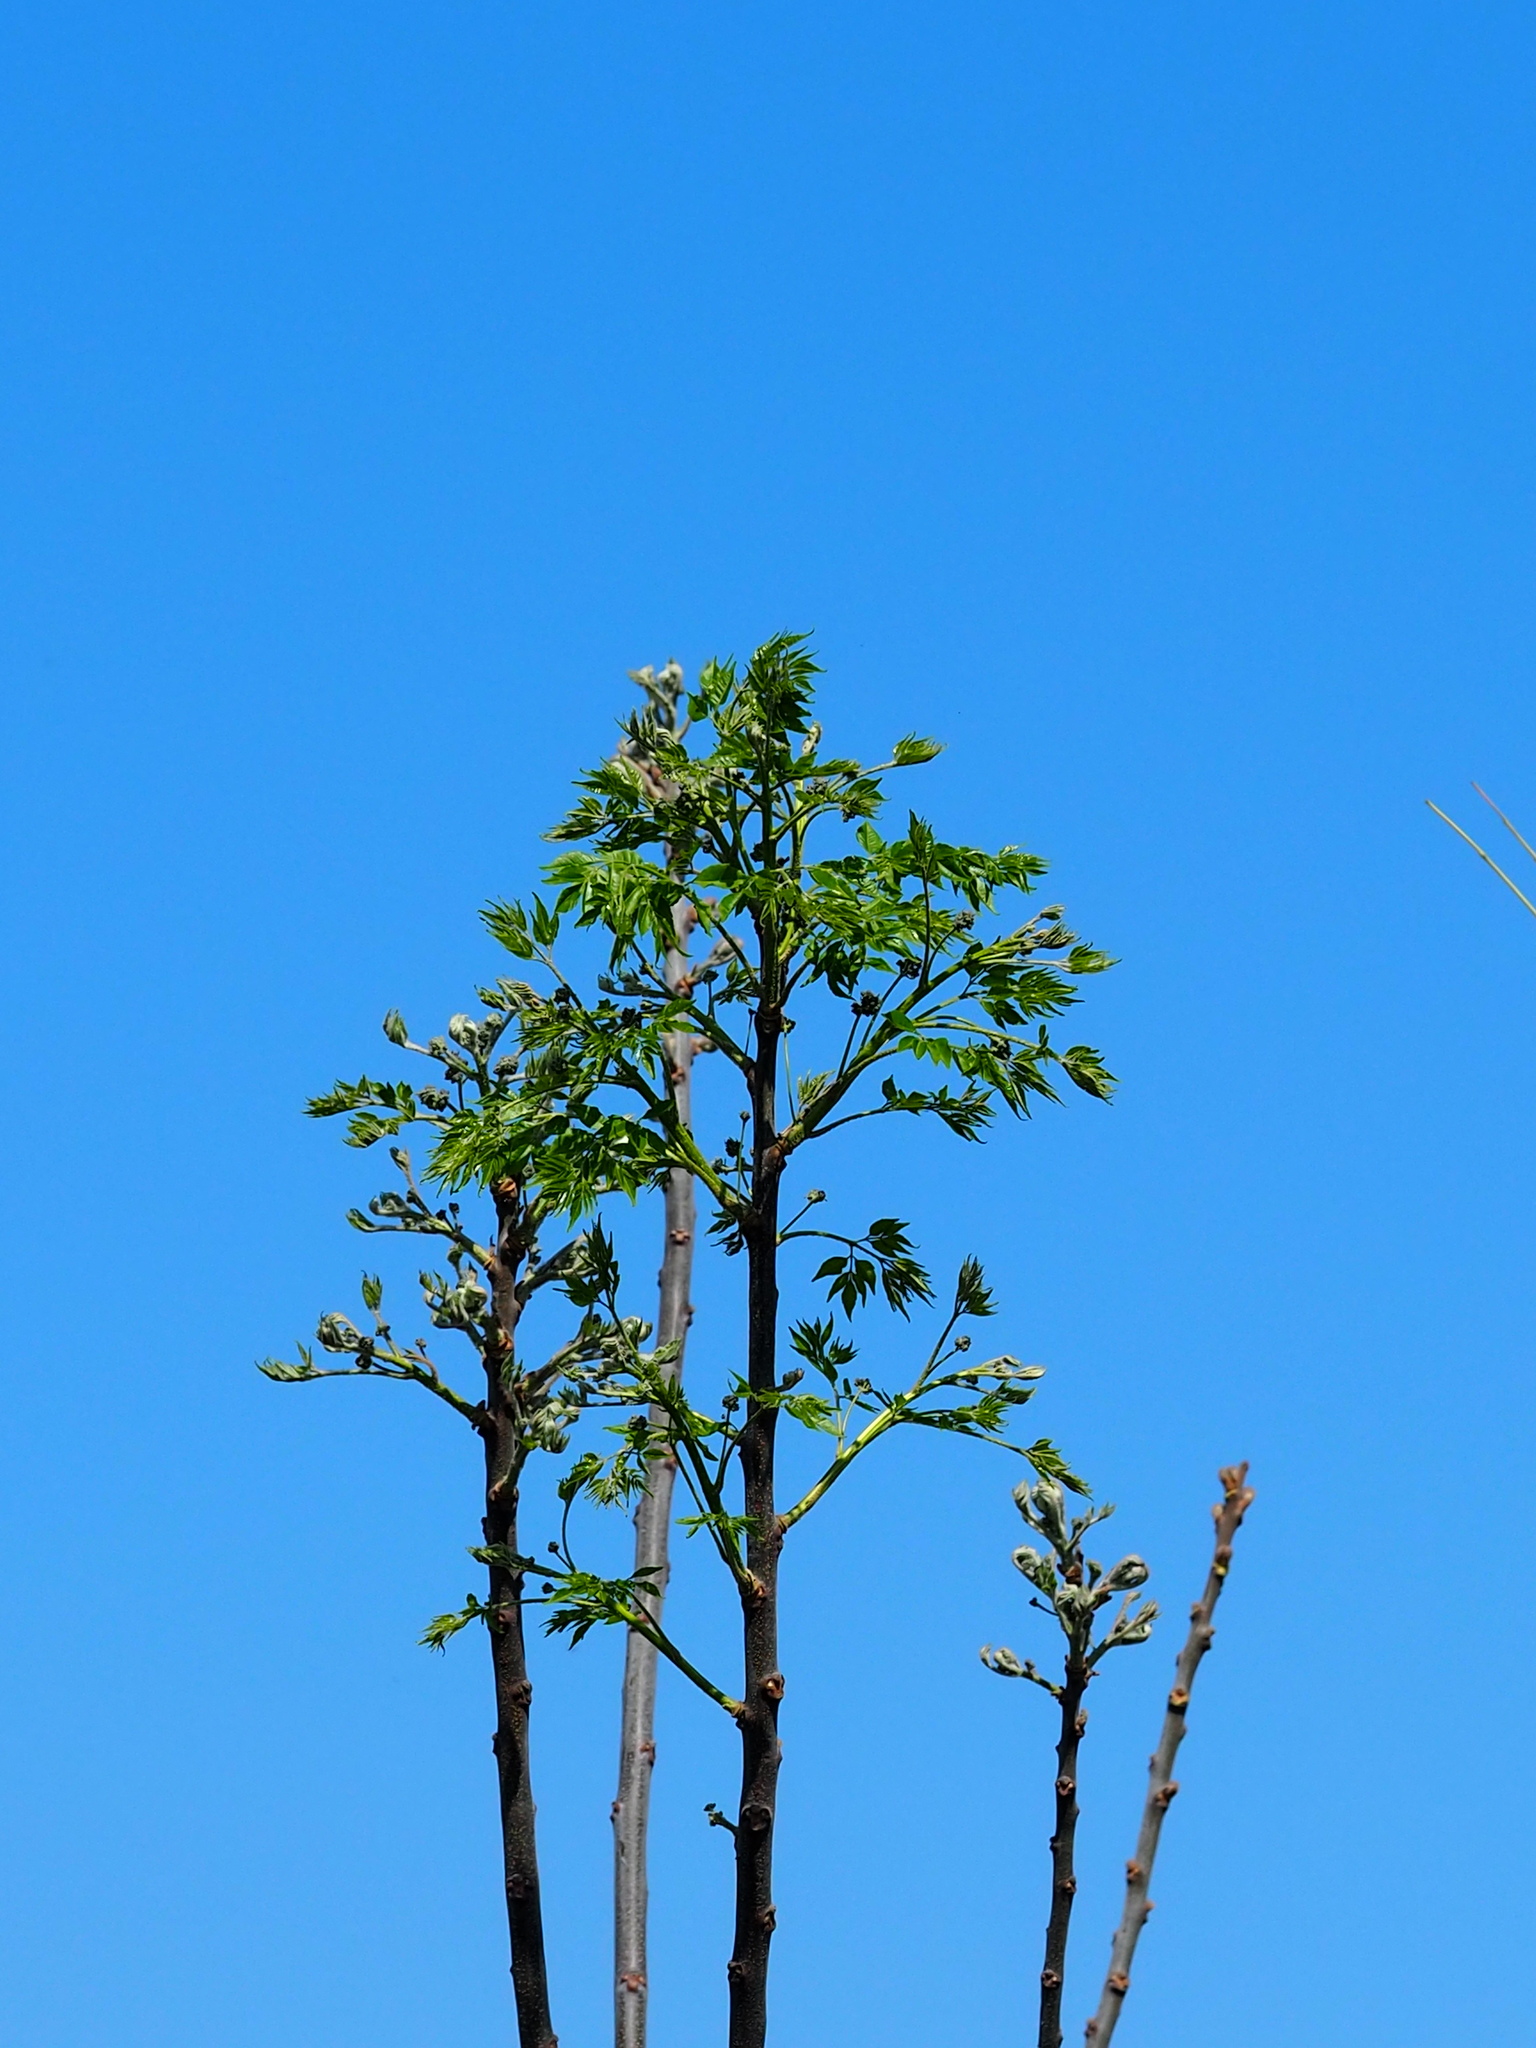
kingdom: Plantae
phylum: Tracheophyta
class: Magnoliopsida
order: Sapindales
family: Meliaceae
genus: Melia
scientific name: Melia azedarach
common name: Chinaberrytree
